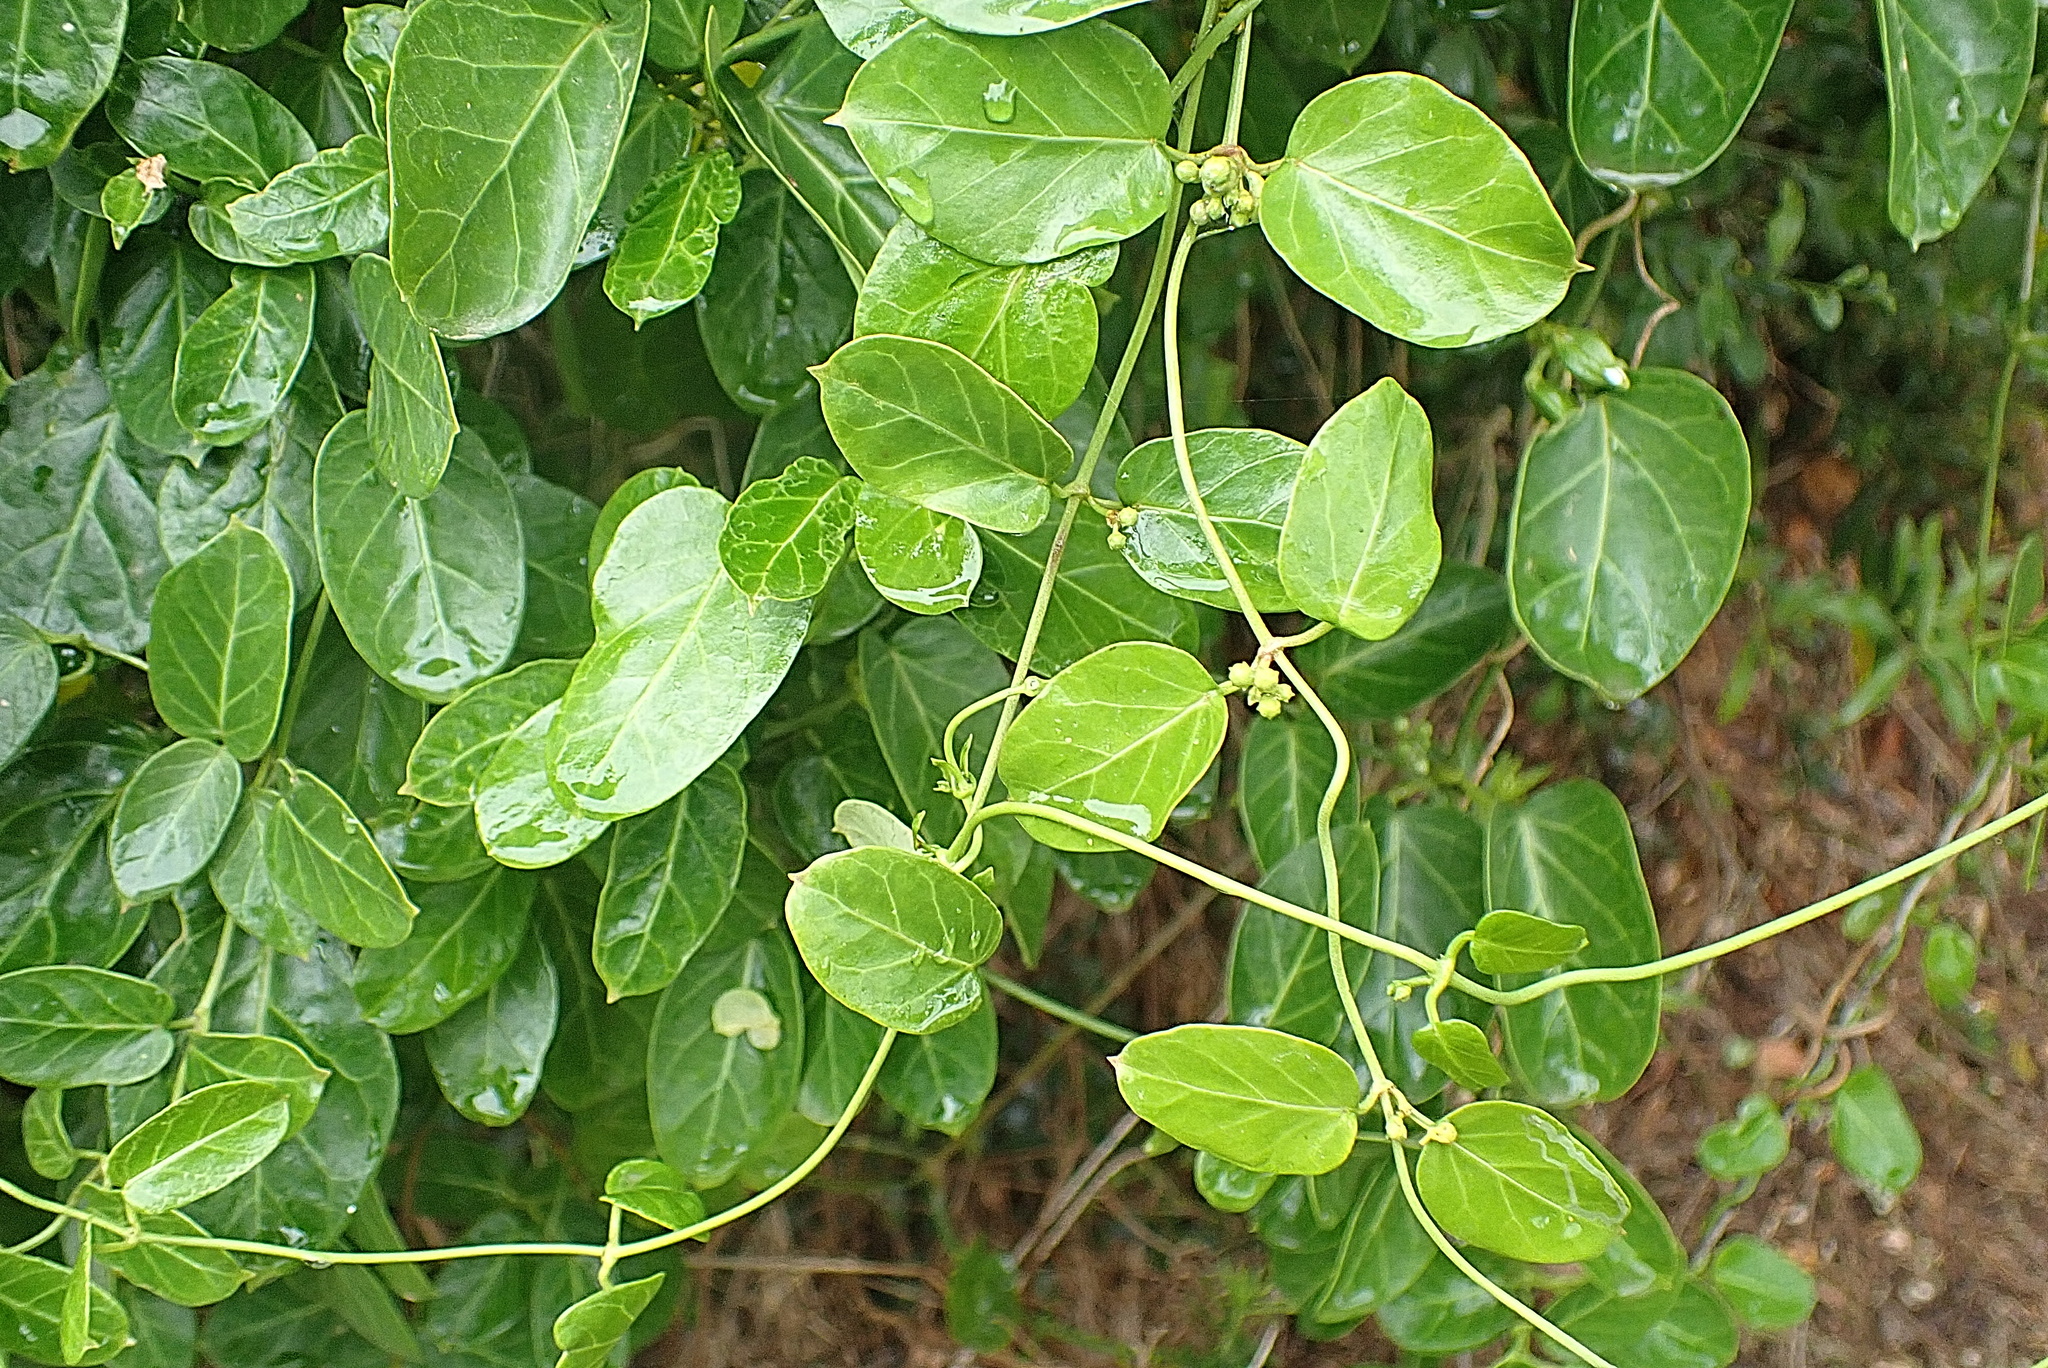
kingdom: Plantae
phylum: Tracheophyta
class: Magnoliopsida
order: Gentianales
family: Apocynaceae
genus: Cynanchum
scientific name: Cynanchum obtusifolium
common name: Monkey-rope
